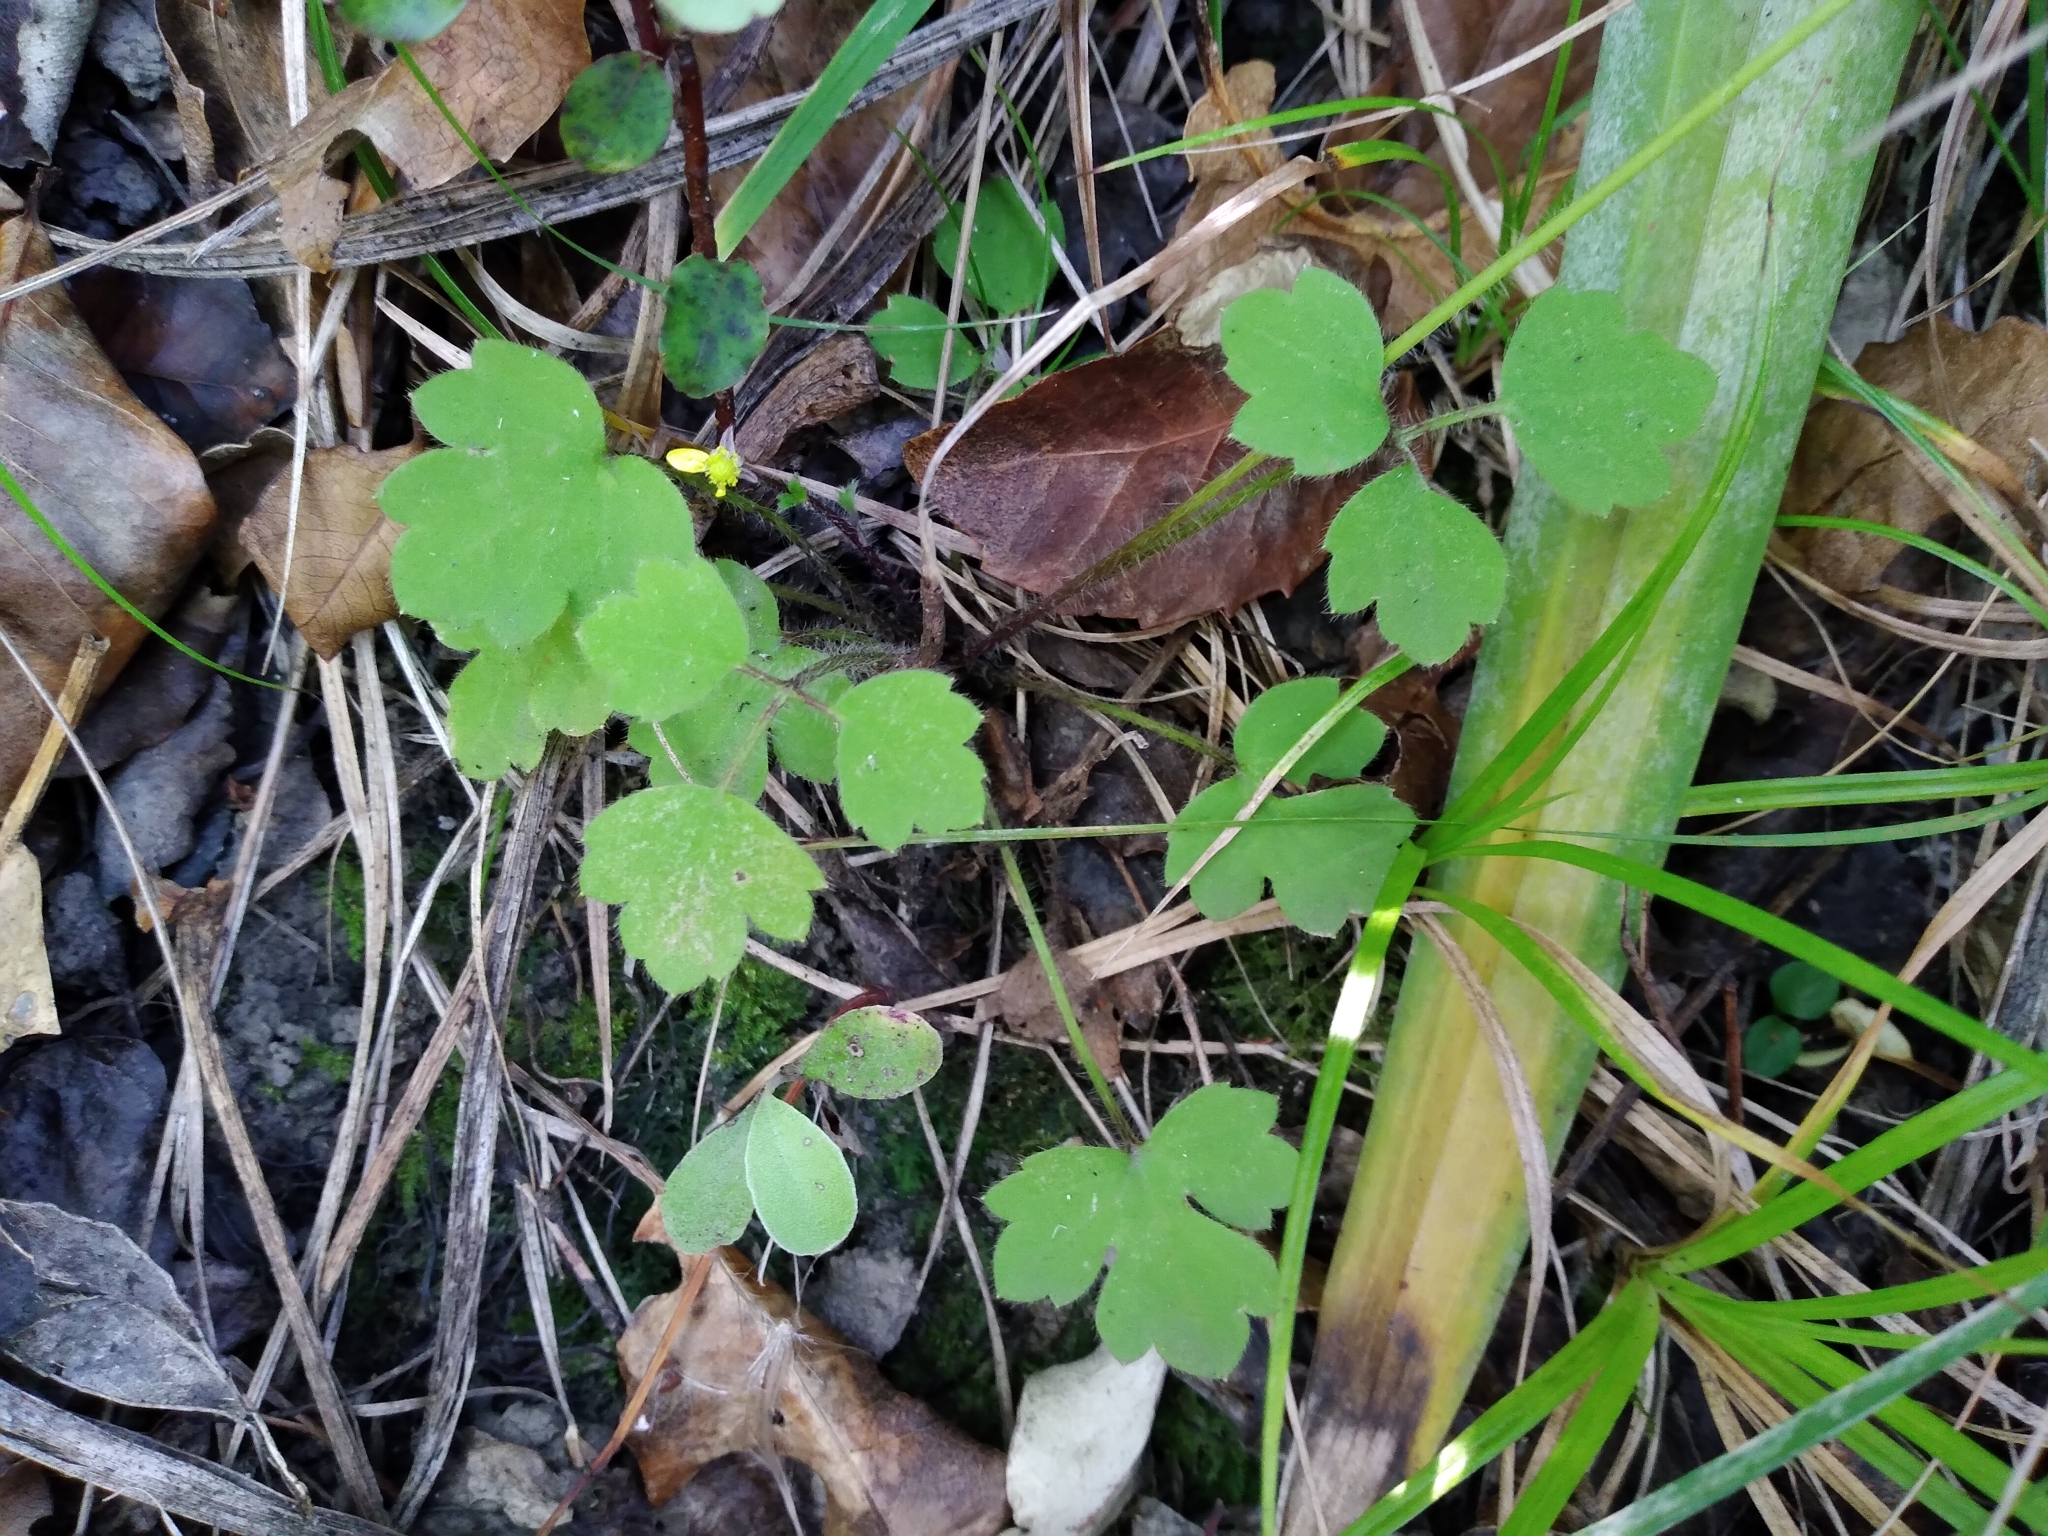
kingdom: Plantae
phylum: Tracheophyta
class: Magnoliopsida
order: Ranunculales
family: Ranunculaceae
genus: Ranunculus
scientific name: Ranunculus reflexus
